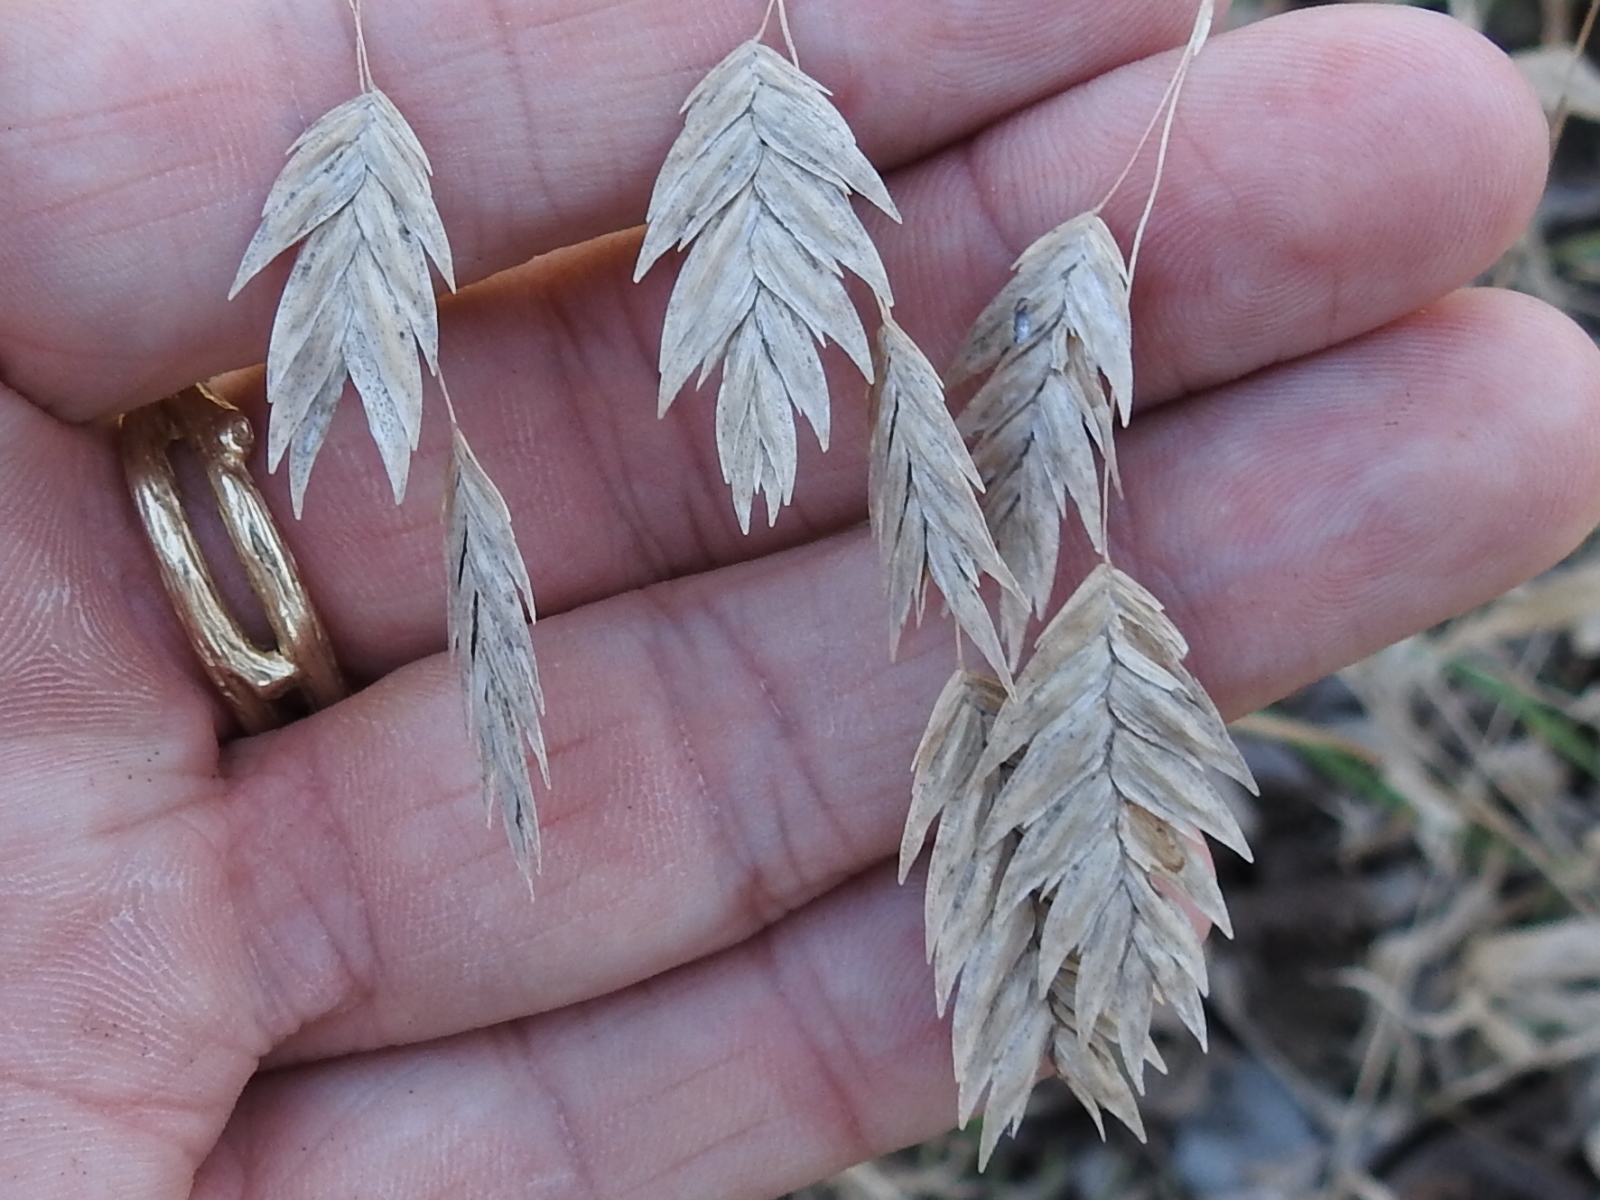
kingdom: Plantae
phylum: Tracheophyta
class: Liliopsida
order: Poales
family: Poaceae
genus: Chasmanthium
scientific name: Chasmanthium latifolium
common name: Broad-leaved chasmanthium
